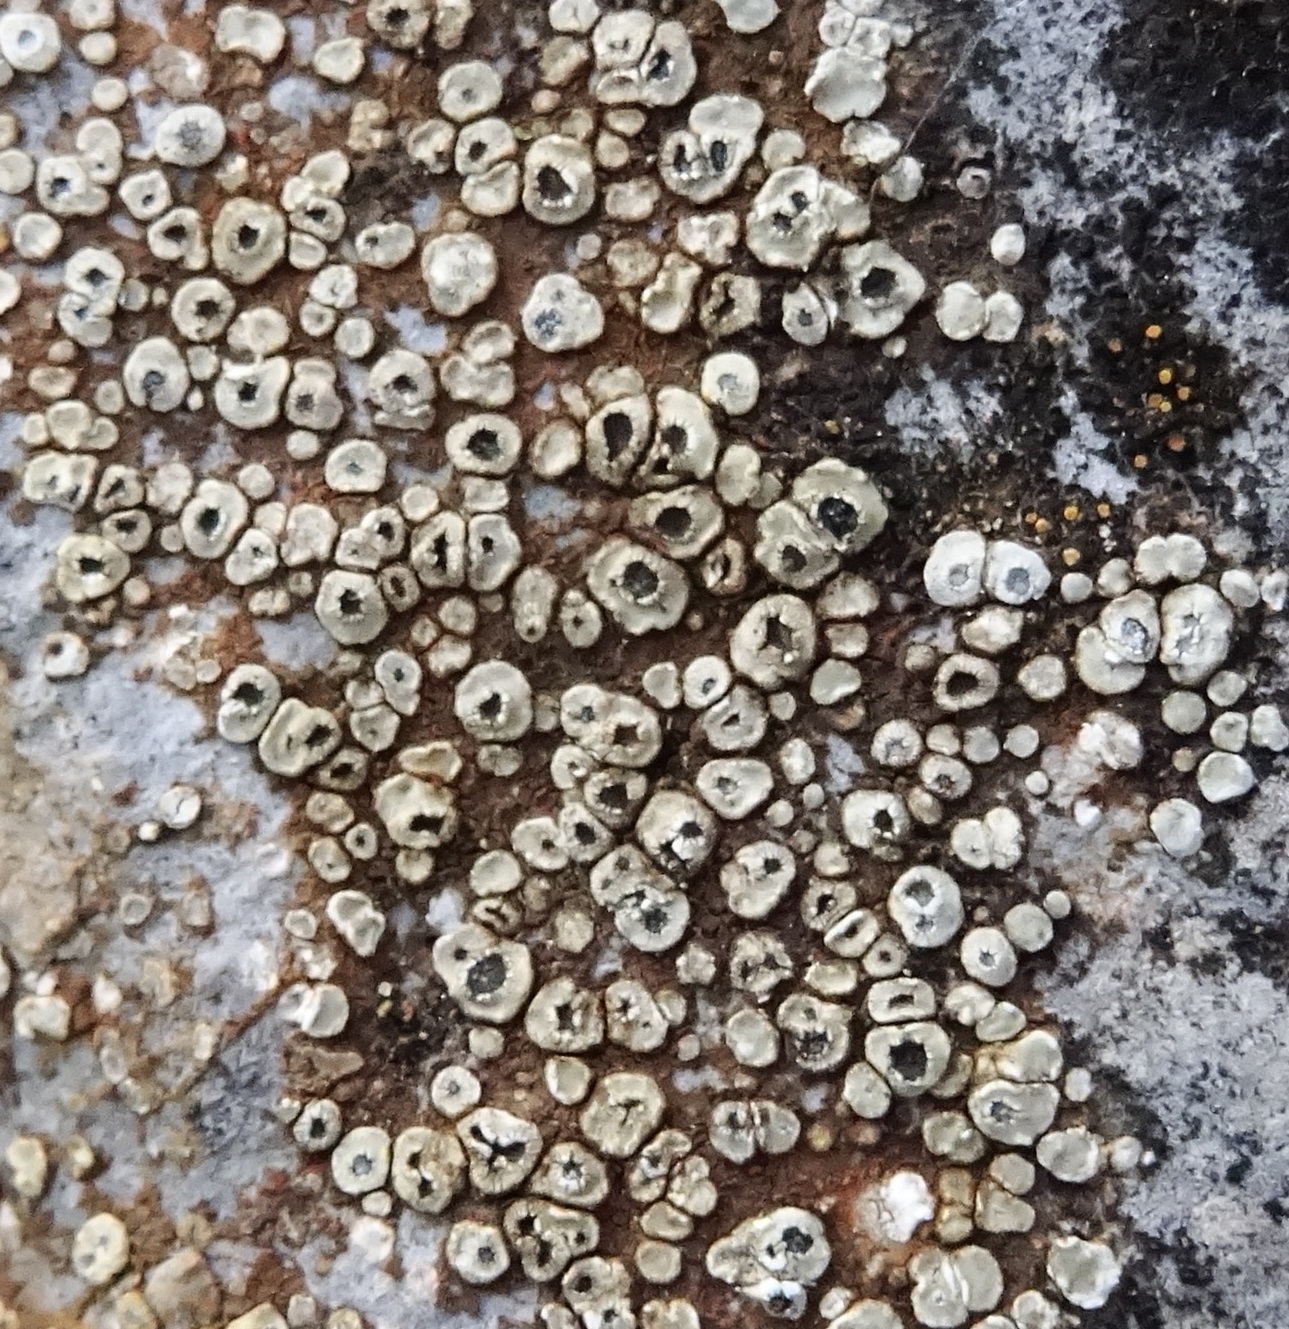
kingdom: Fungi
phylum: Ascomycota
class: Lecanoromycetes
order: Pertusariales
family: Megasporaceae
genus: Circinaria
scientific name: Circinaria contorta
